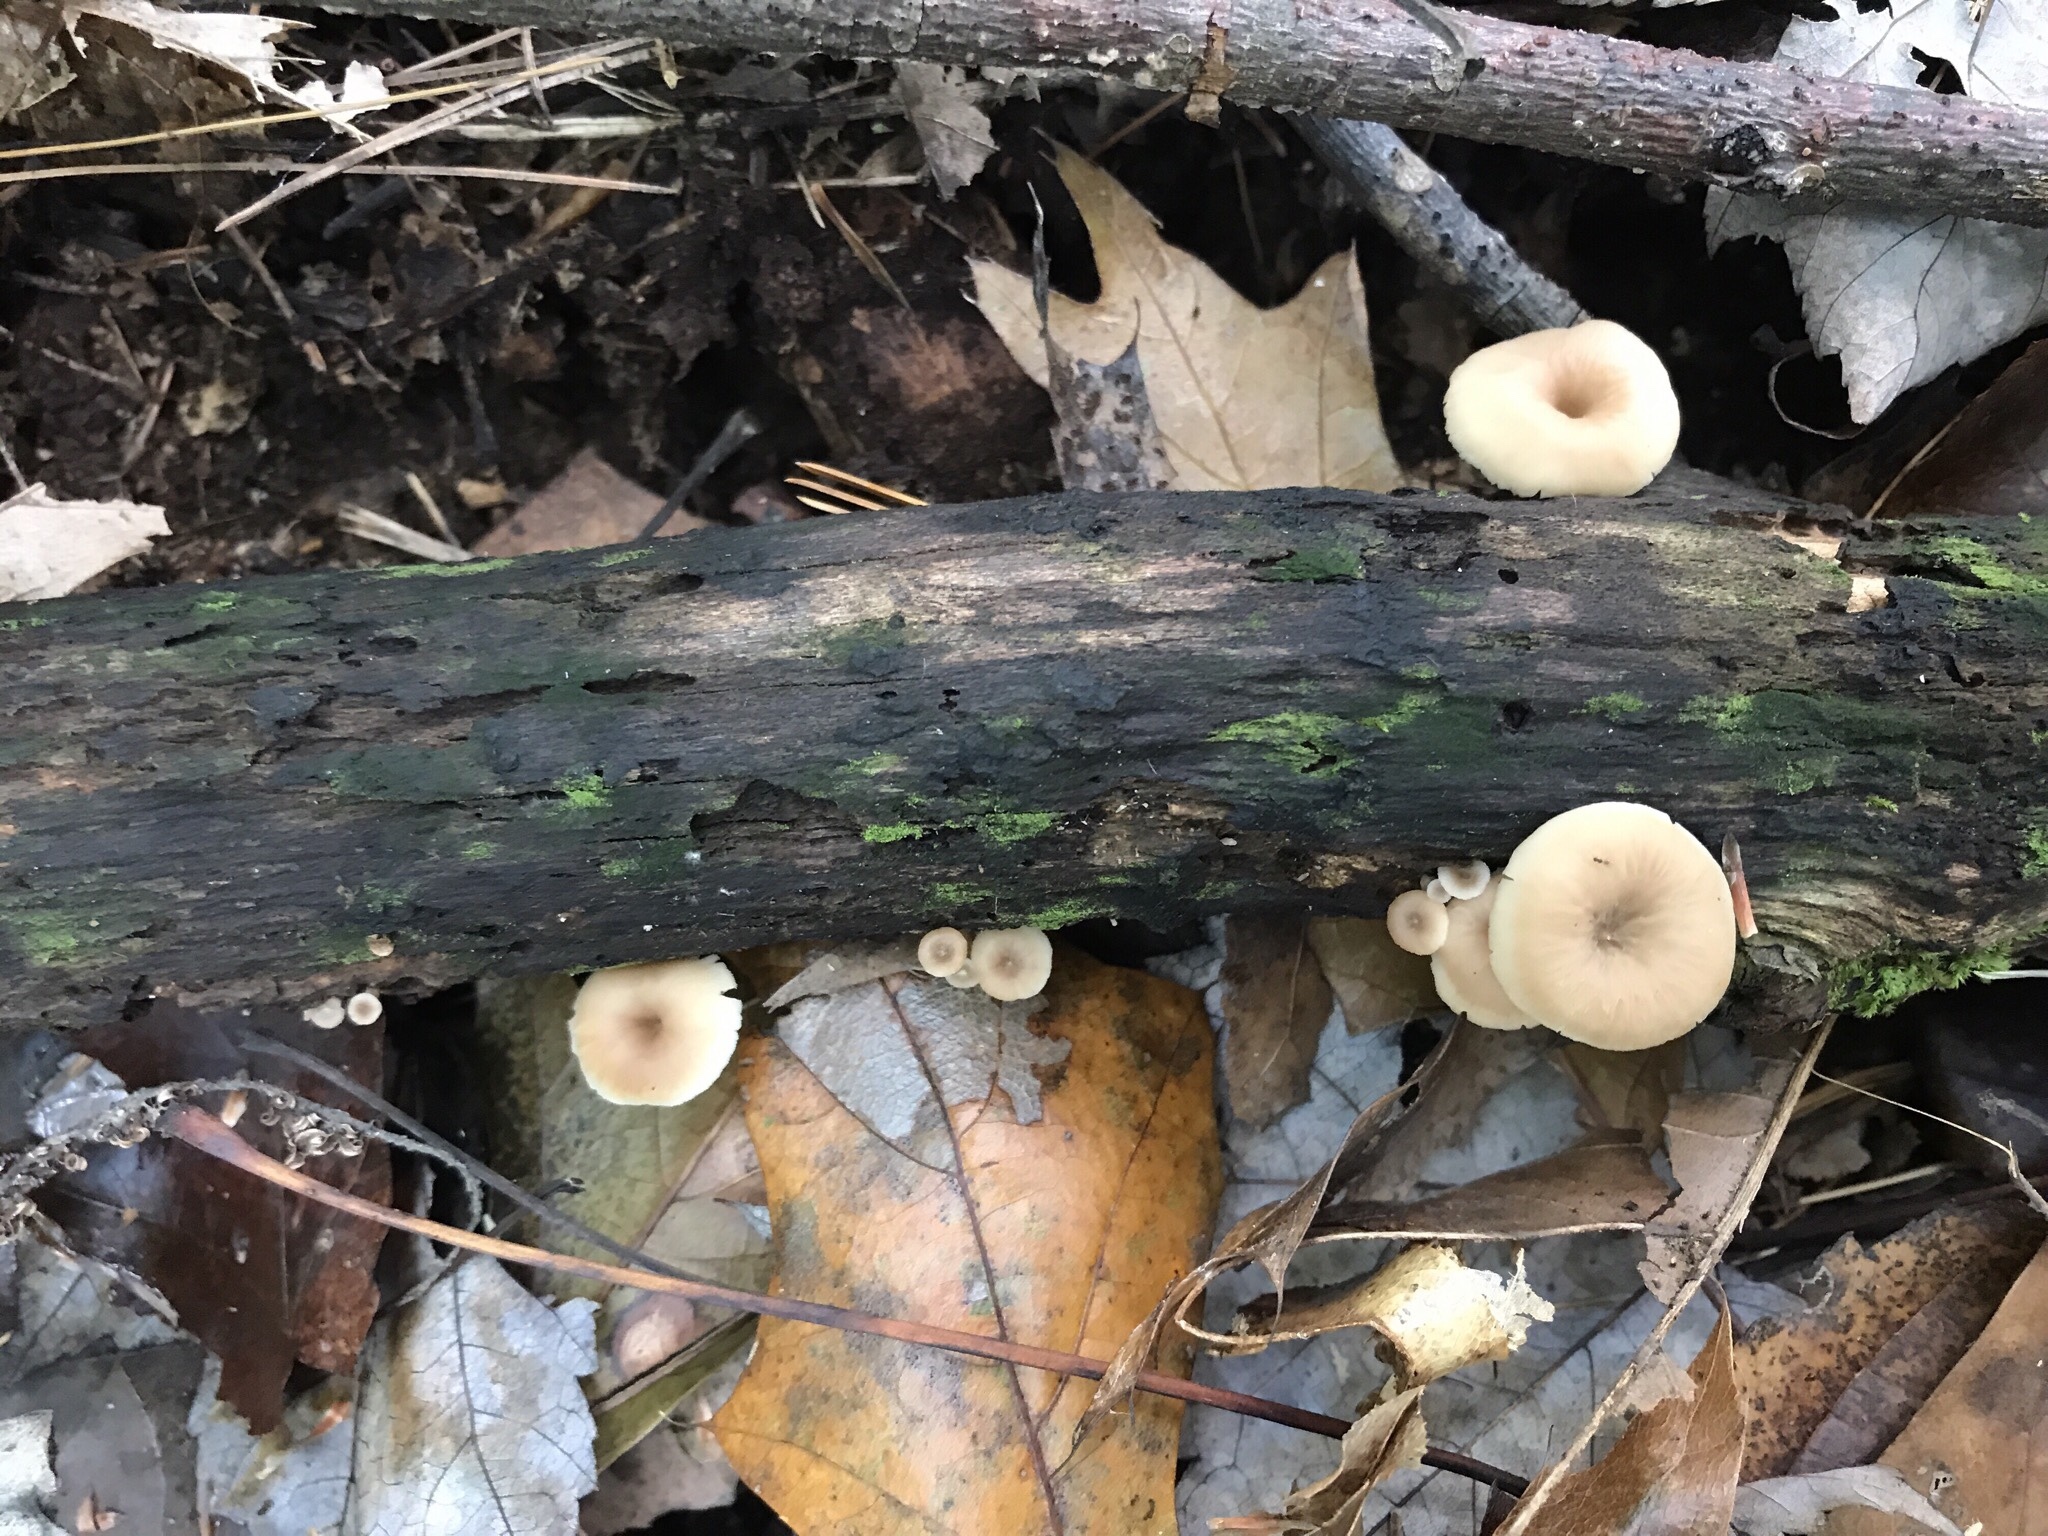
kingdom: Fungi
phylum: Basidiomycota
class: Agaricomycetes
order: Russulales
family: Auriscalpiaceae
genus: Lentinellus
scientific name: Lentinellus subaustralis
